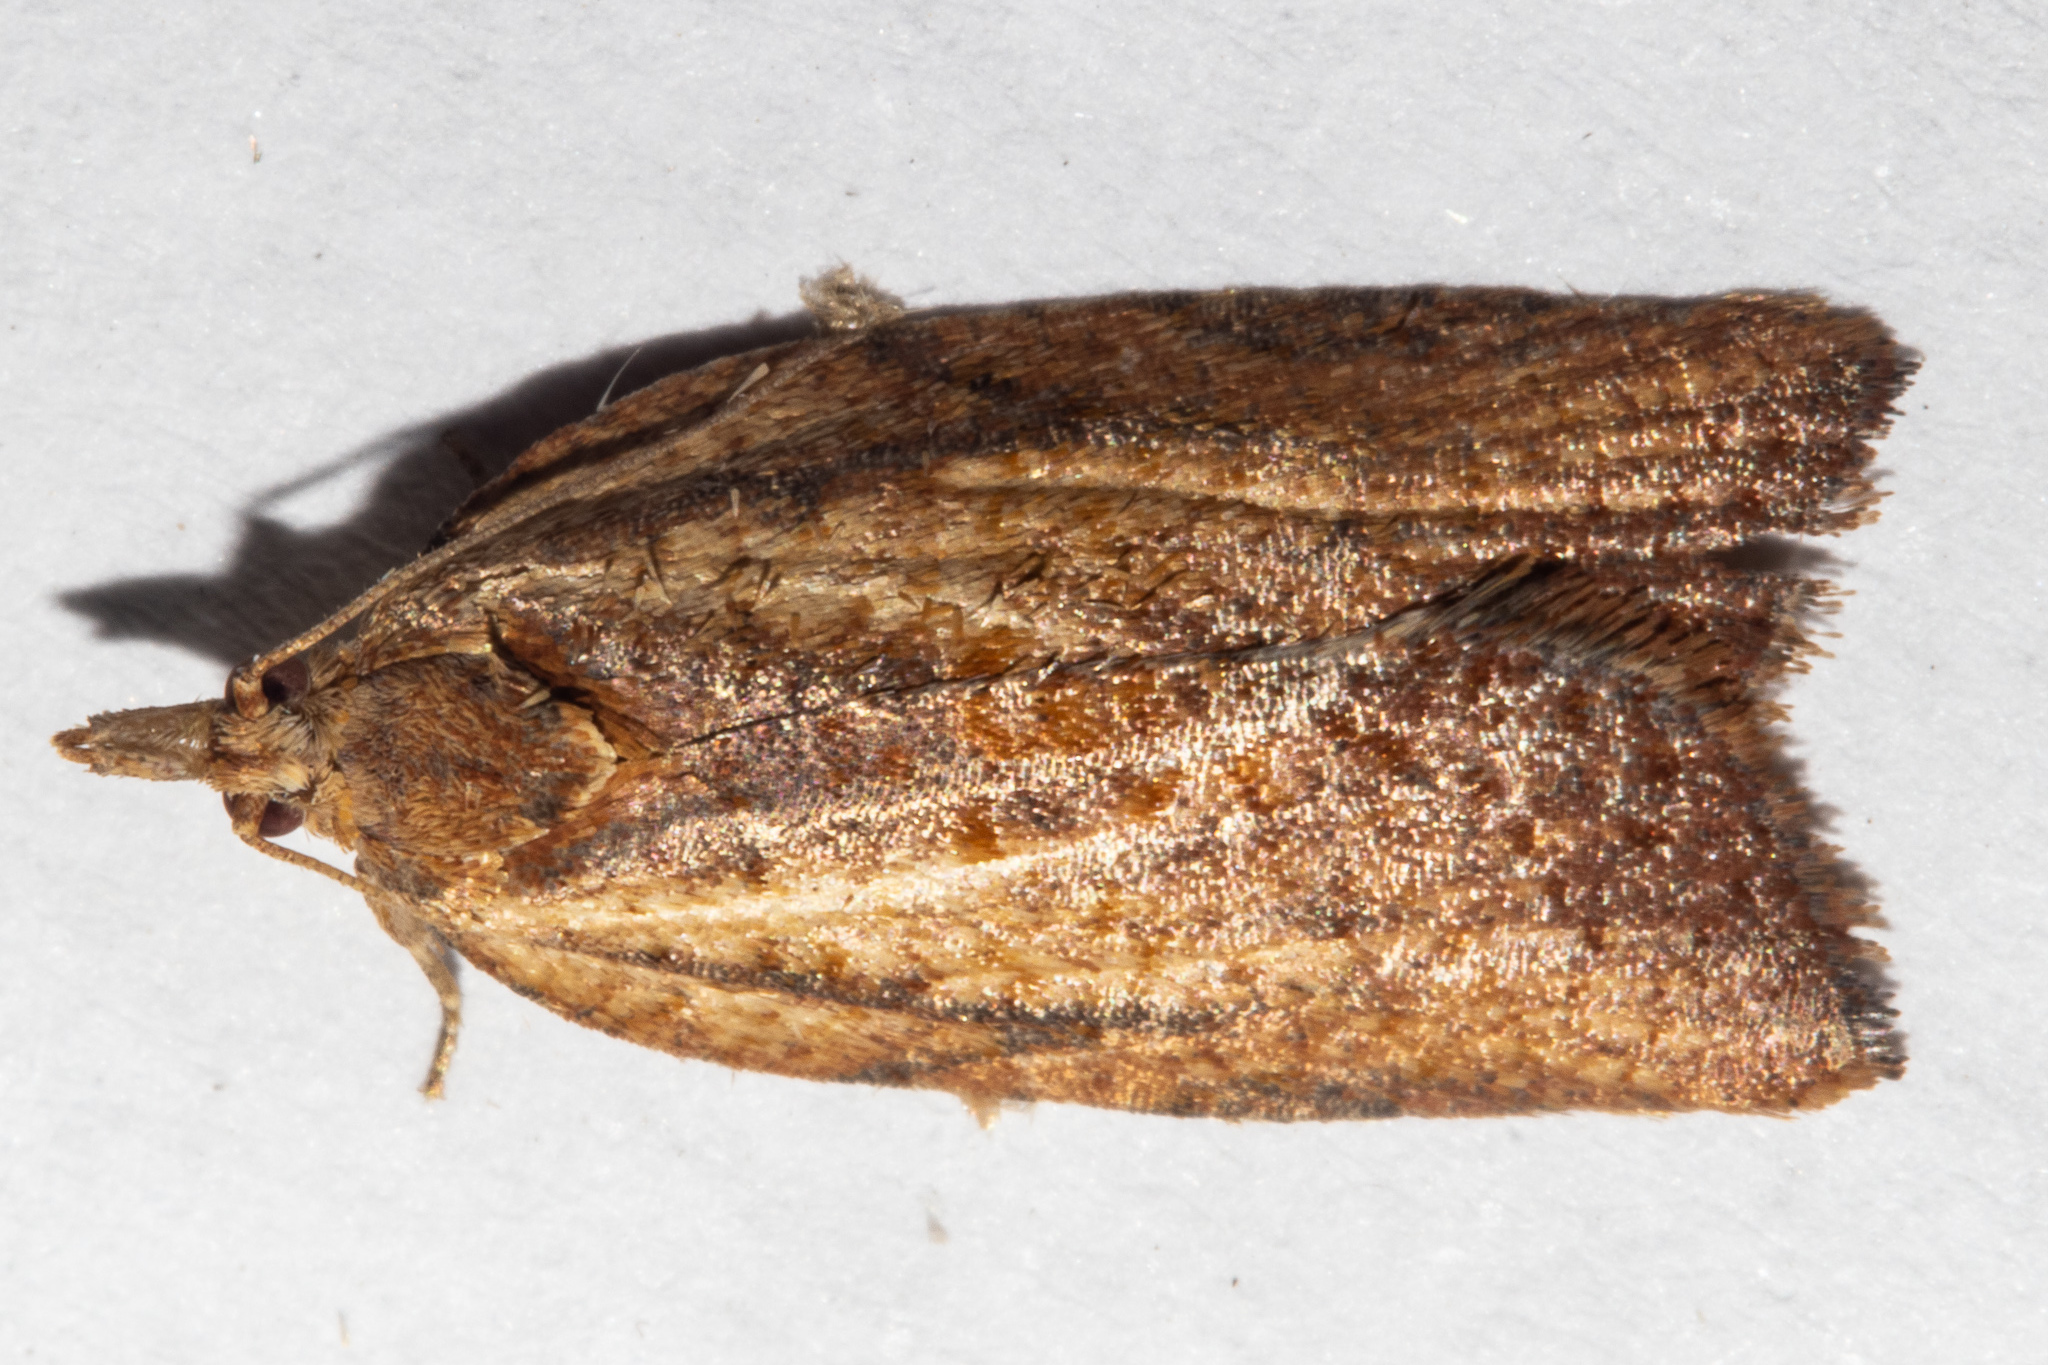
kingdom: Animalia
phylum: Arthropoda
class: Insecta
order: Lepidoptera
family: Tortricidae
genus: Epiphyas
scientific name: Epiphyas postvittana
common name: Light brown apple moth
